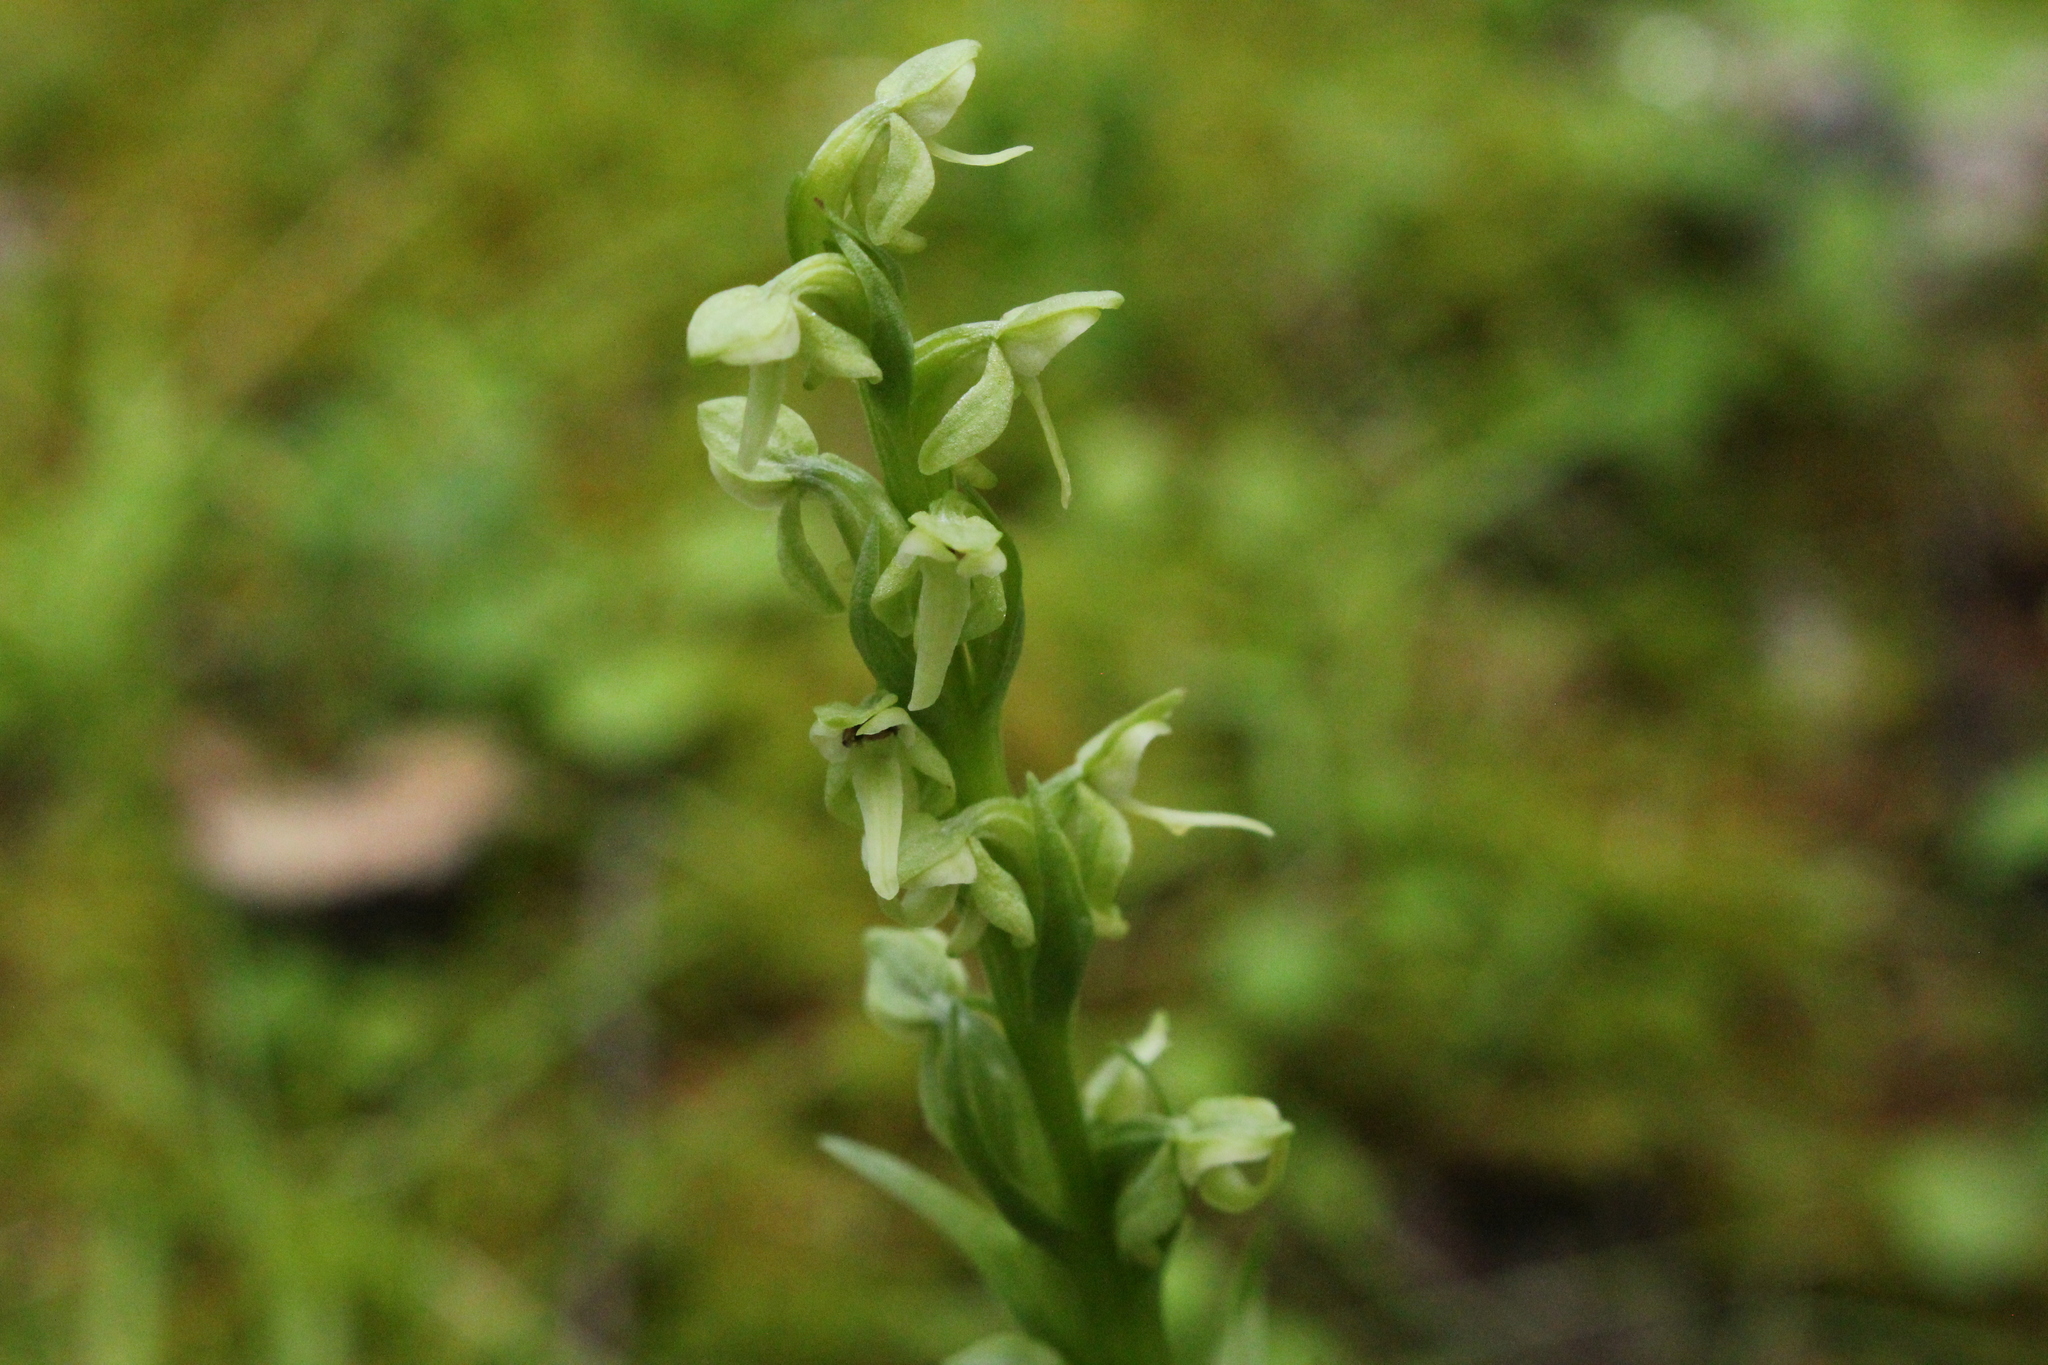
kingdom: Plantae
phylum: Tracheophyta
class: Liliopsida
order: Asparagales
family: Orchidaceae
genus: Platanthera
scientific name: Platanthera huronensis
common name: Fragrant green orchid
